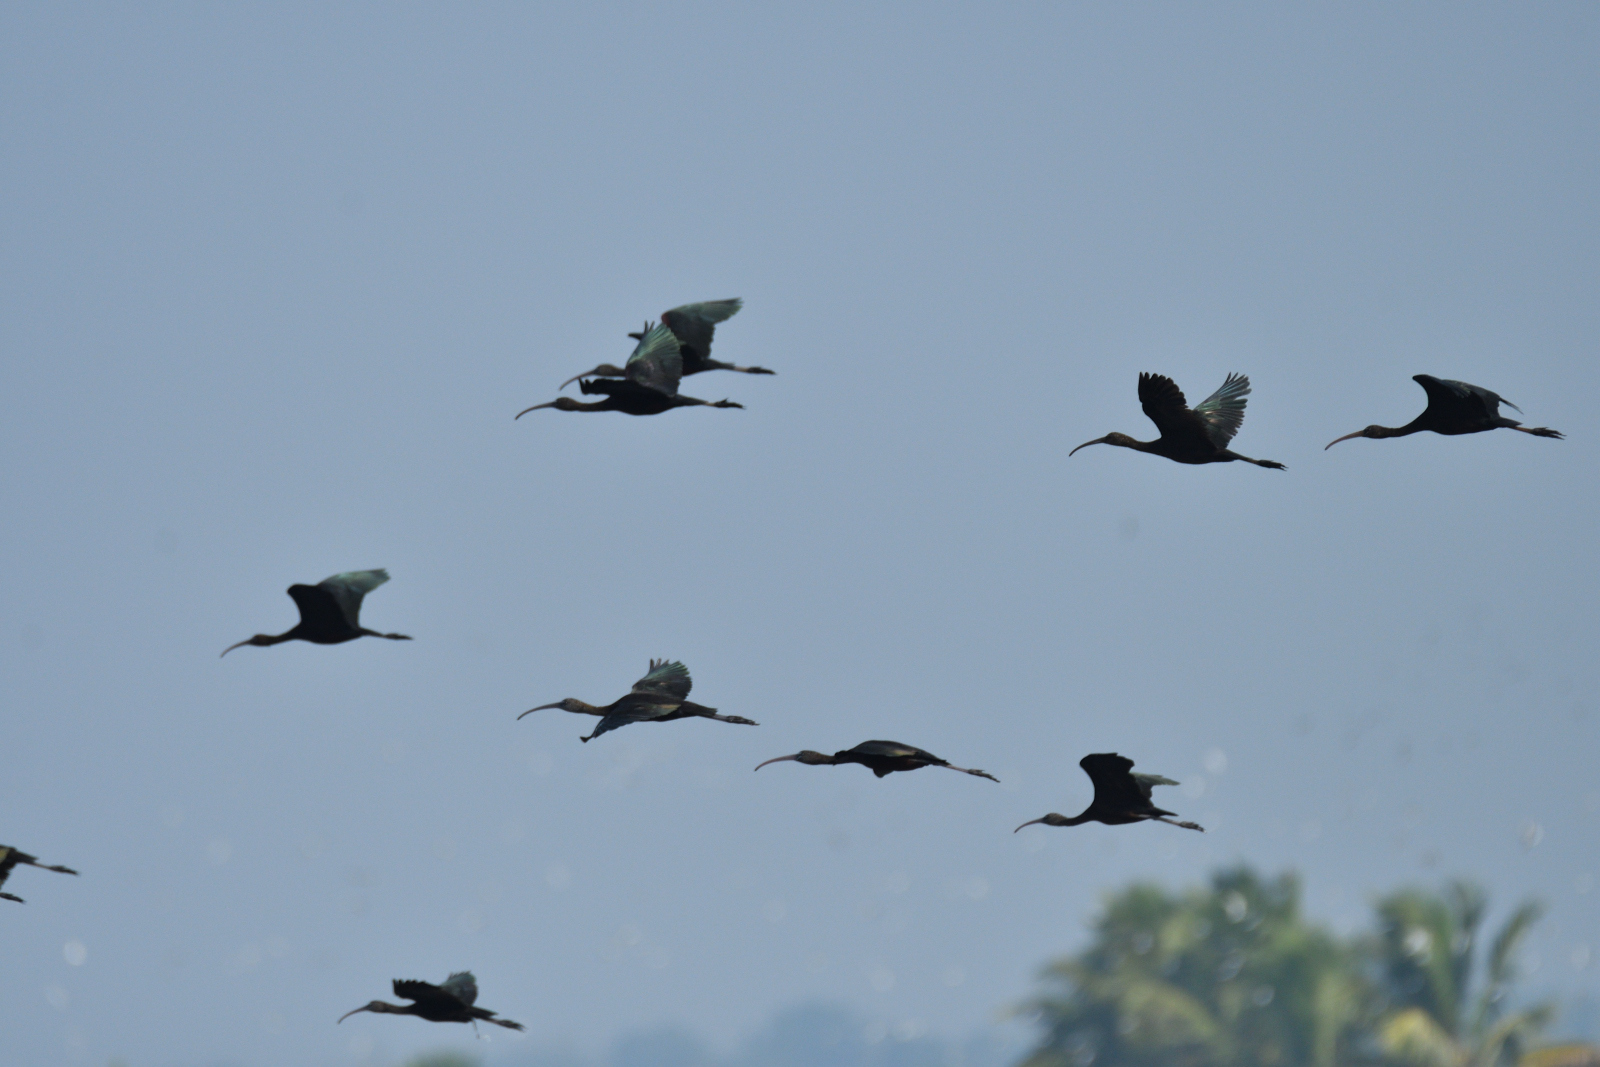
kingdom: Animalia
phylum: Chordata
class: Aves
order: Pelecaniformes
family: Threskiornithidae
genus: Plegadis
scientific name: Plegadis falcinellus
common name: Glossy ibis
